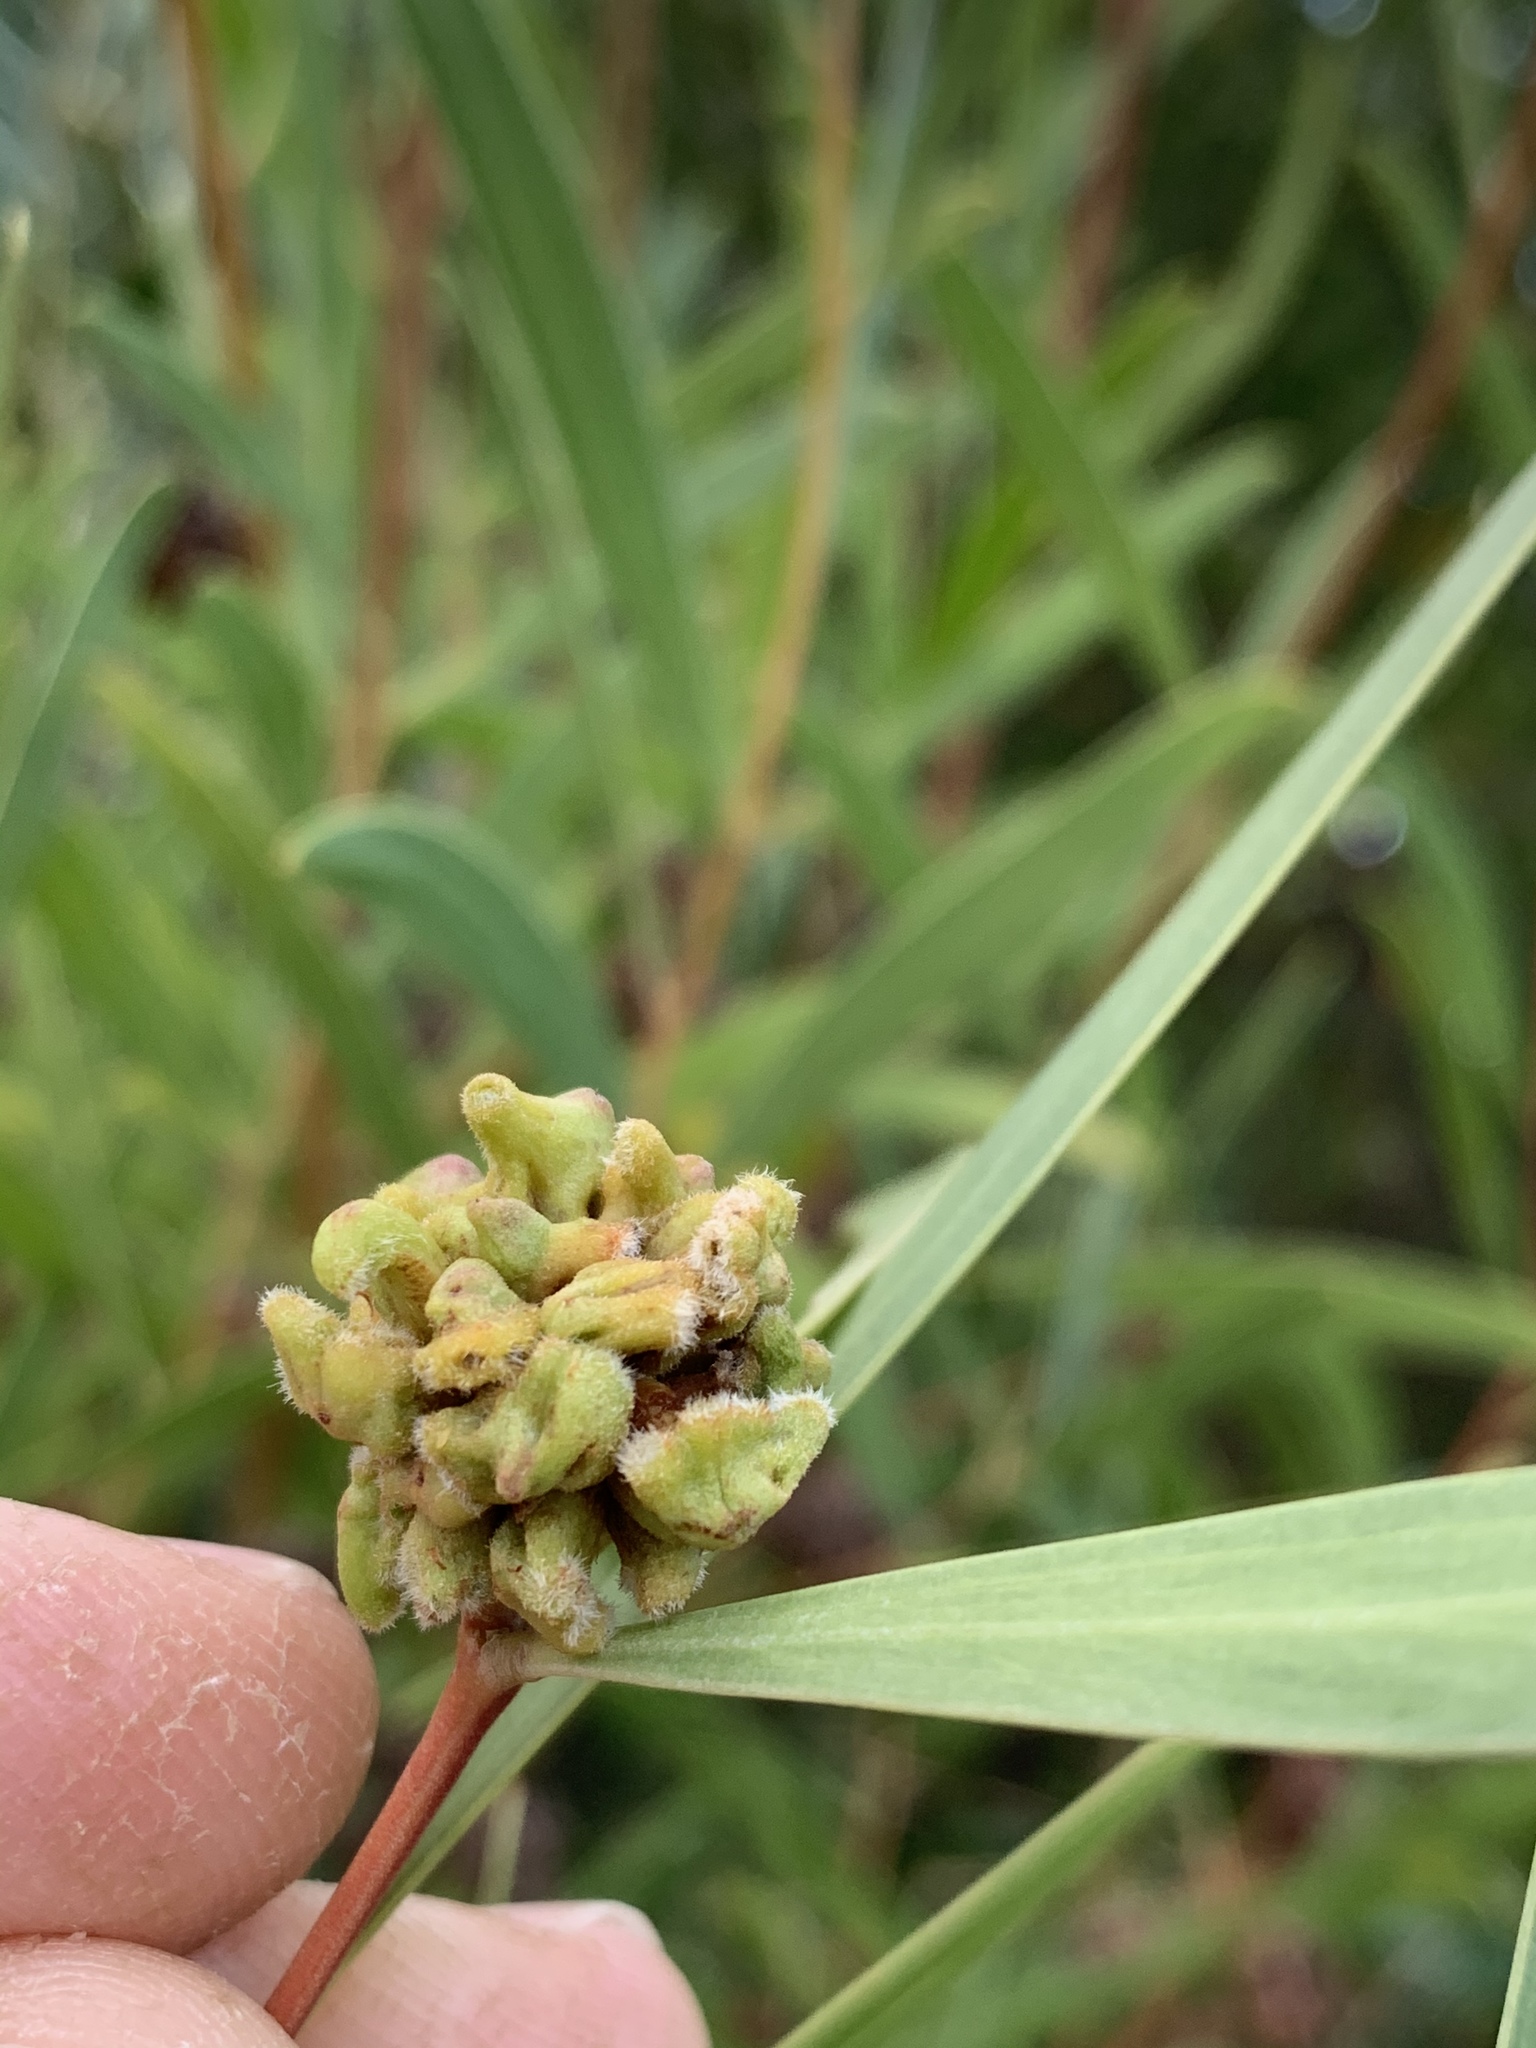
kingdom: Animalia
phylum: Arthropoda
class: Insecta
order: Diptera
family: Cecidomyiidae
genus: Dasineura
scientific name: Dasineura dielsi
